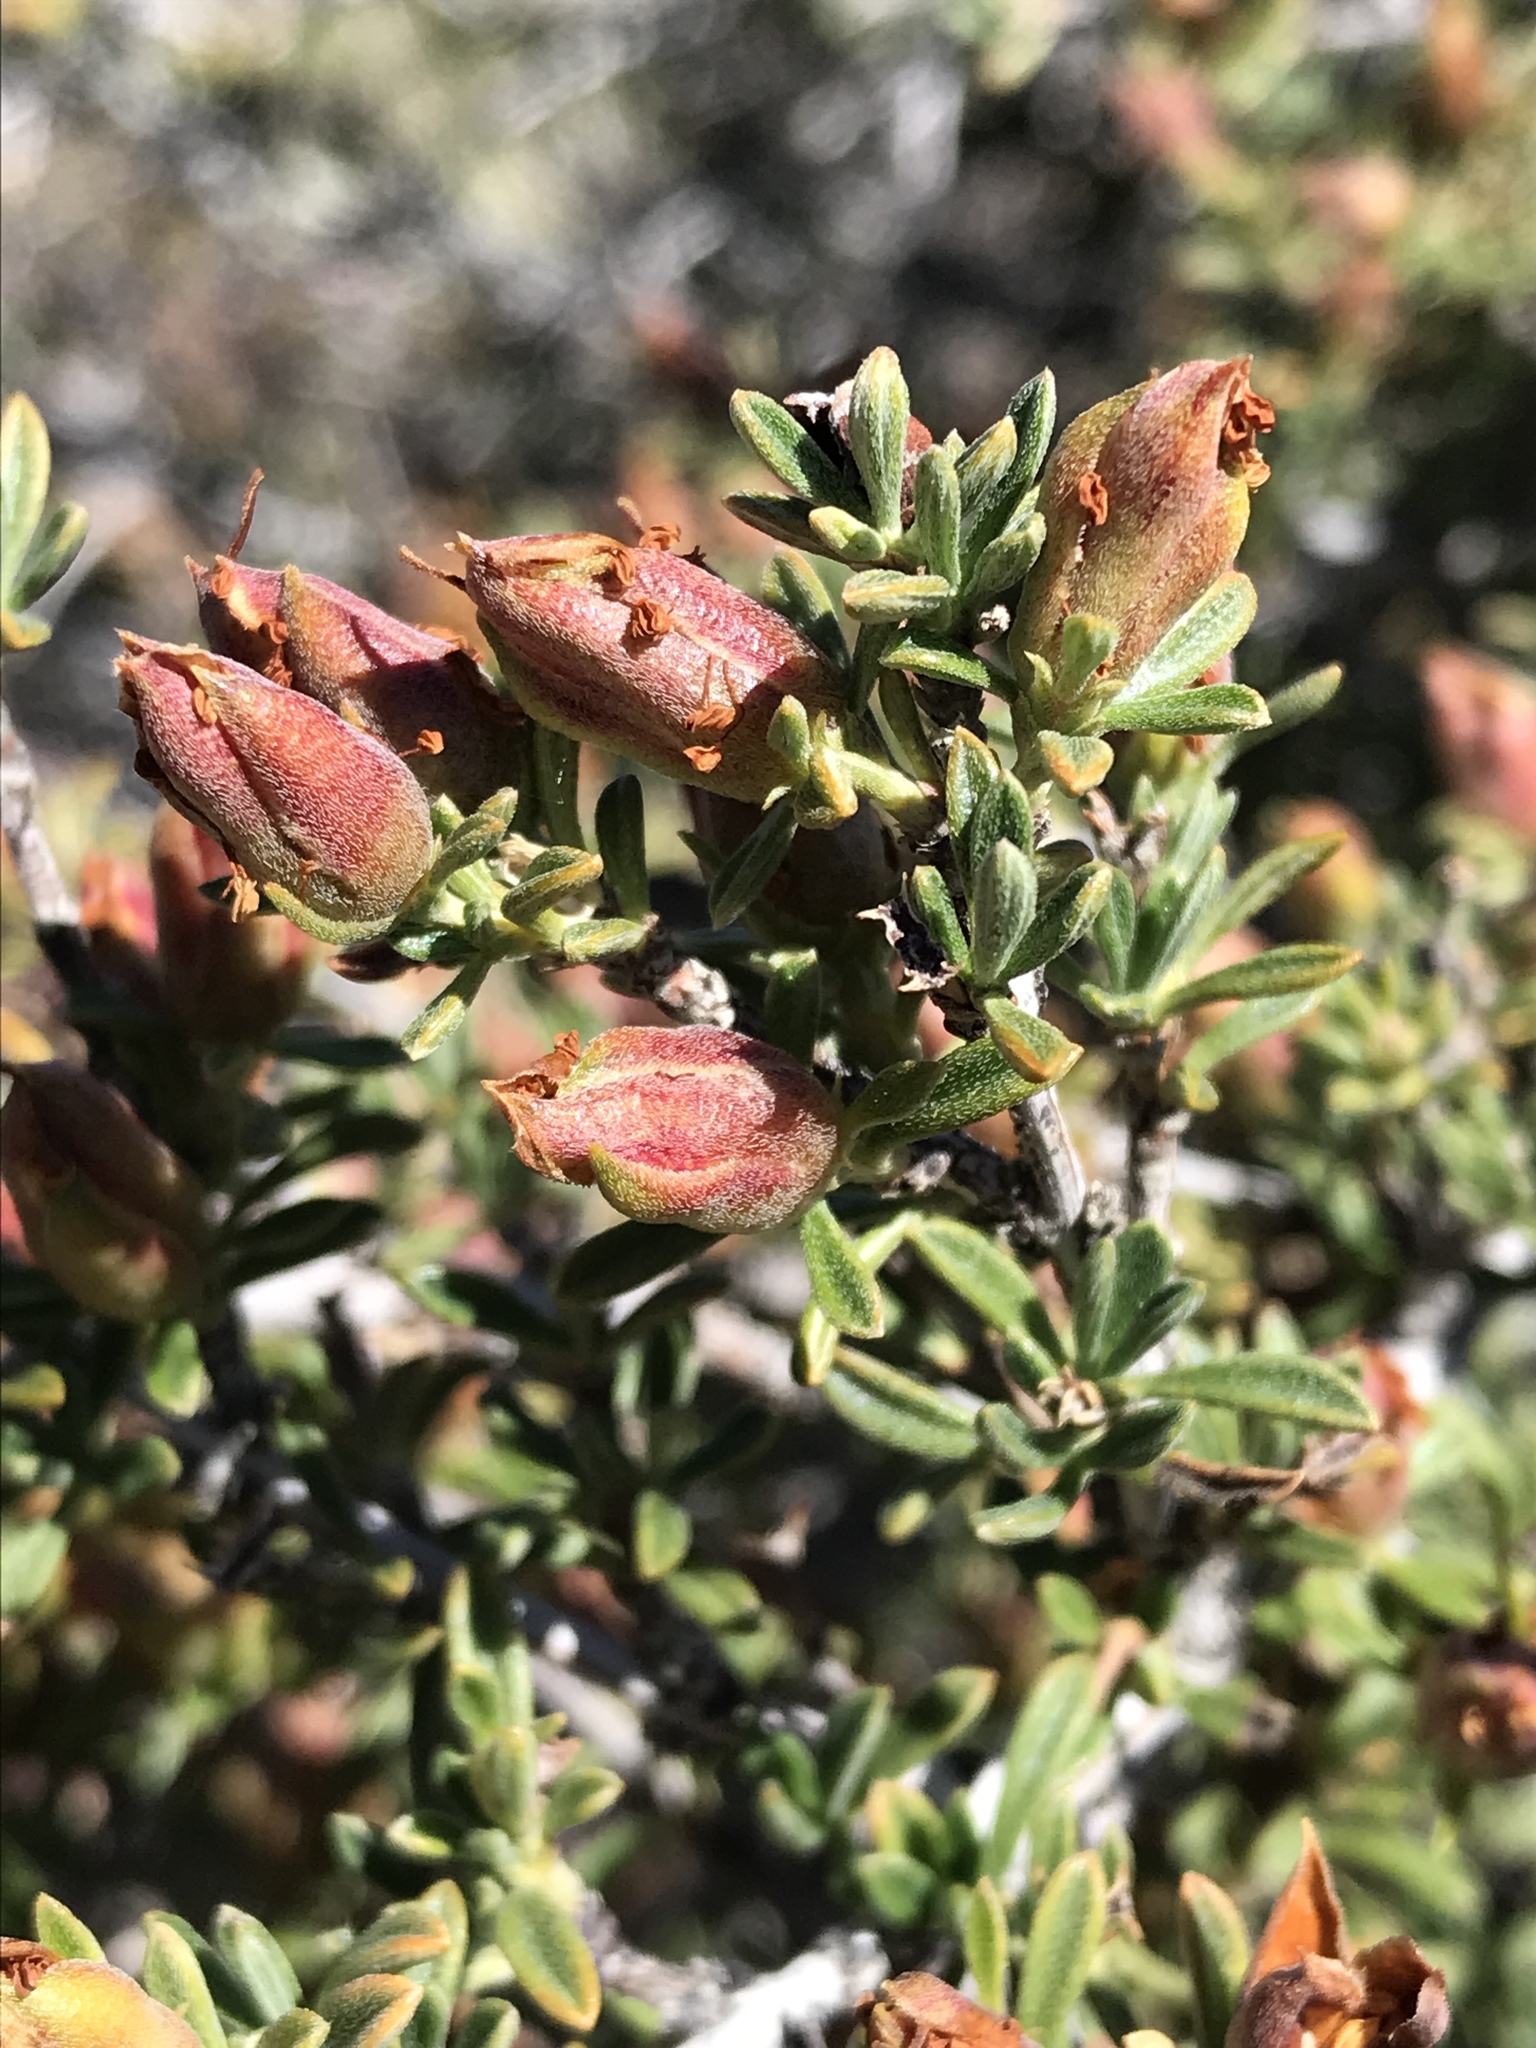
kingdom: Plantae
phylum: Tracheophyta
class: Magnoliopsida
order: Rosales
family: Rosaceae
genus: Coleogyne
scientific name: Coleogyne ramosissima
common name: Blackbrush
